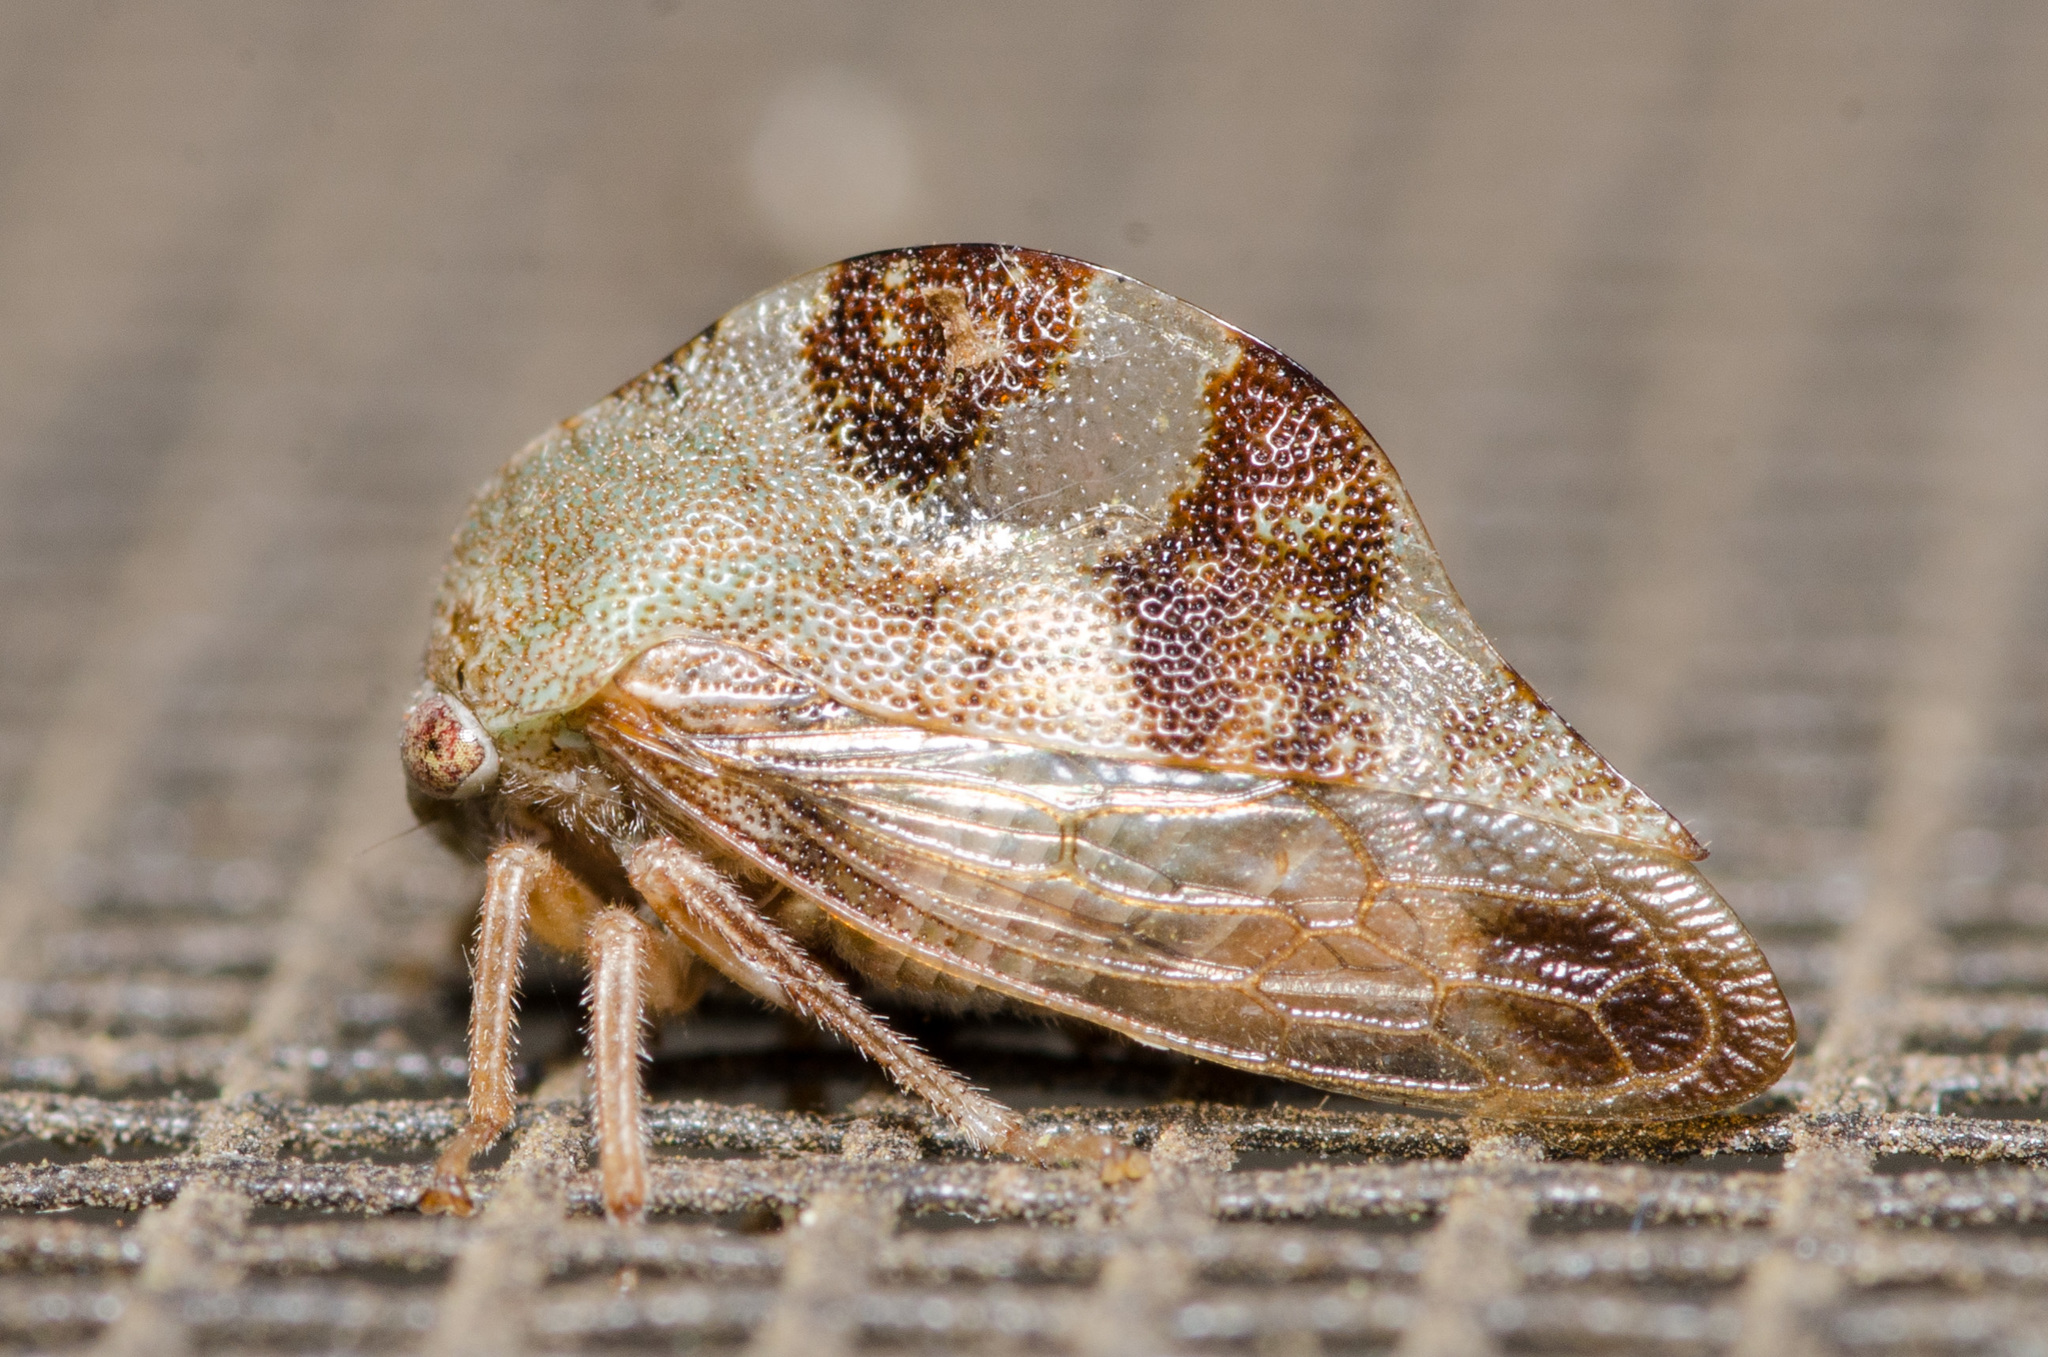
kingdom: Animalia
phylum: Arthropoda
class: Insecta
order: Hemiptera
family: Membracidae
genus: Cyrtolobus
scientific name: Cyrtolobus tuberosa
